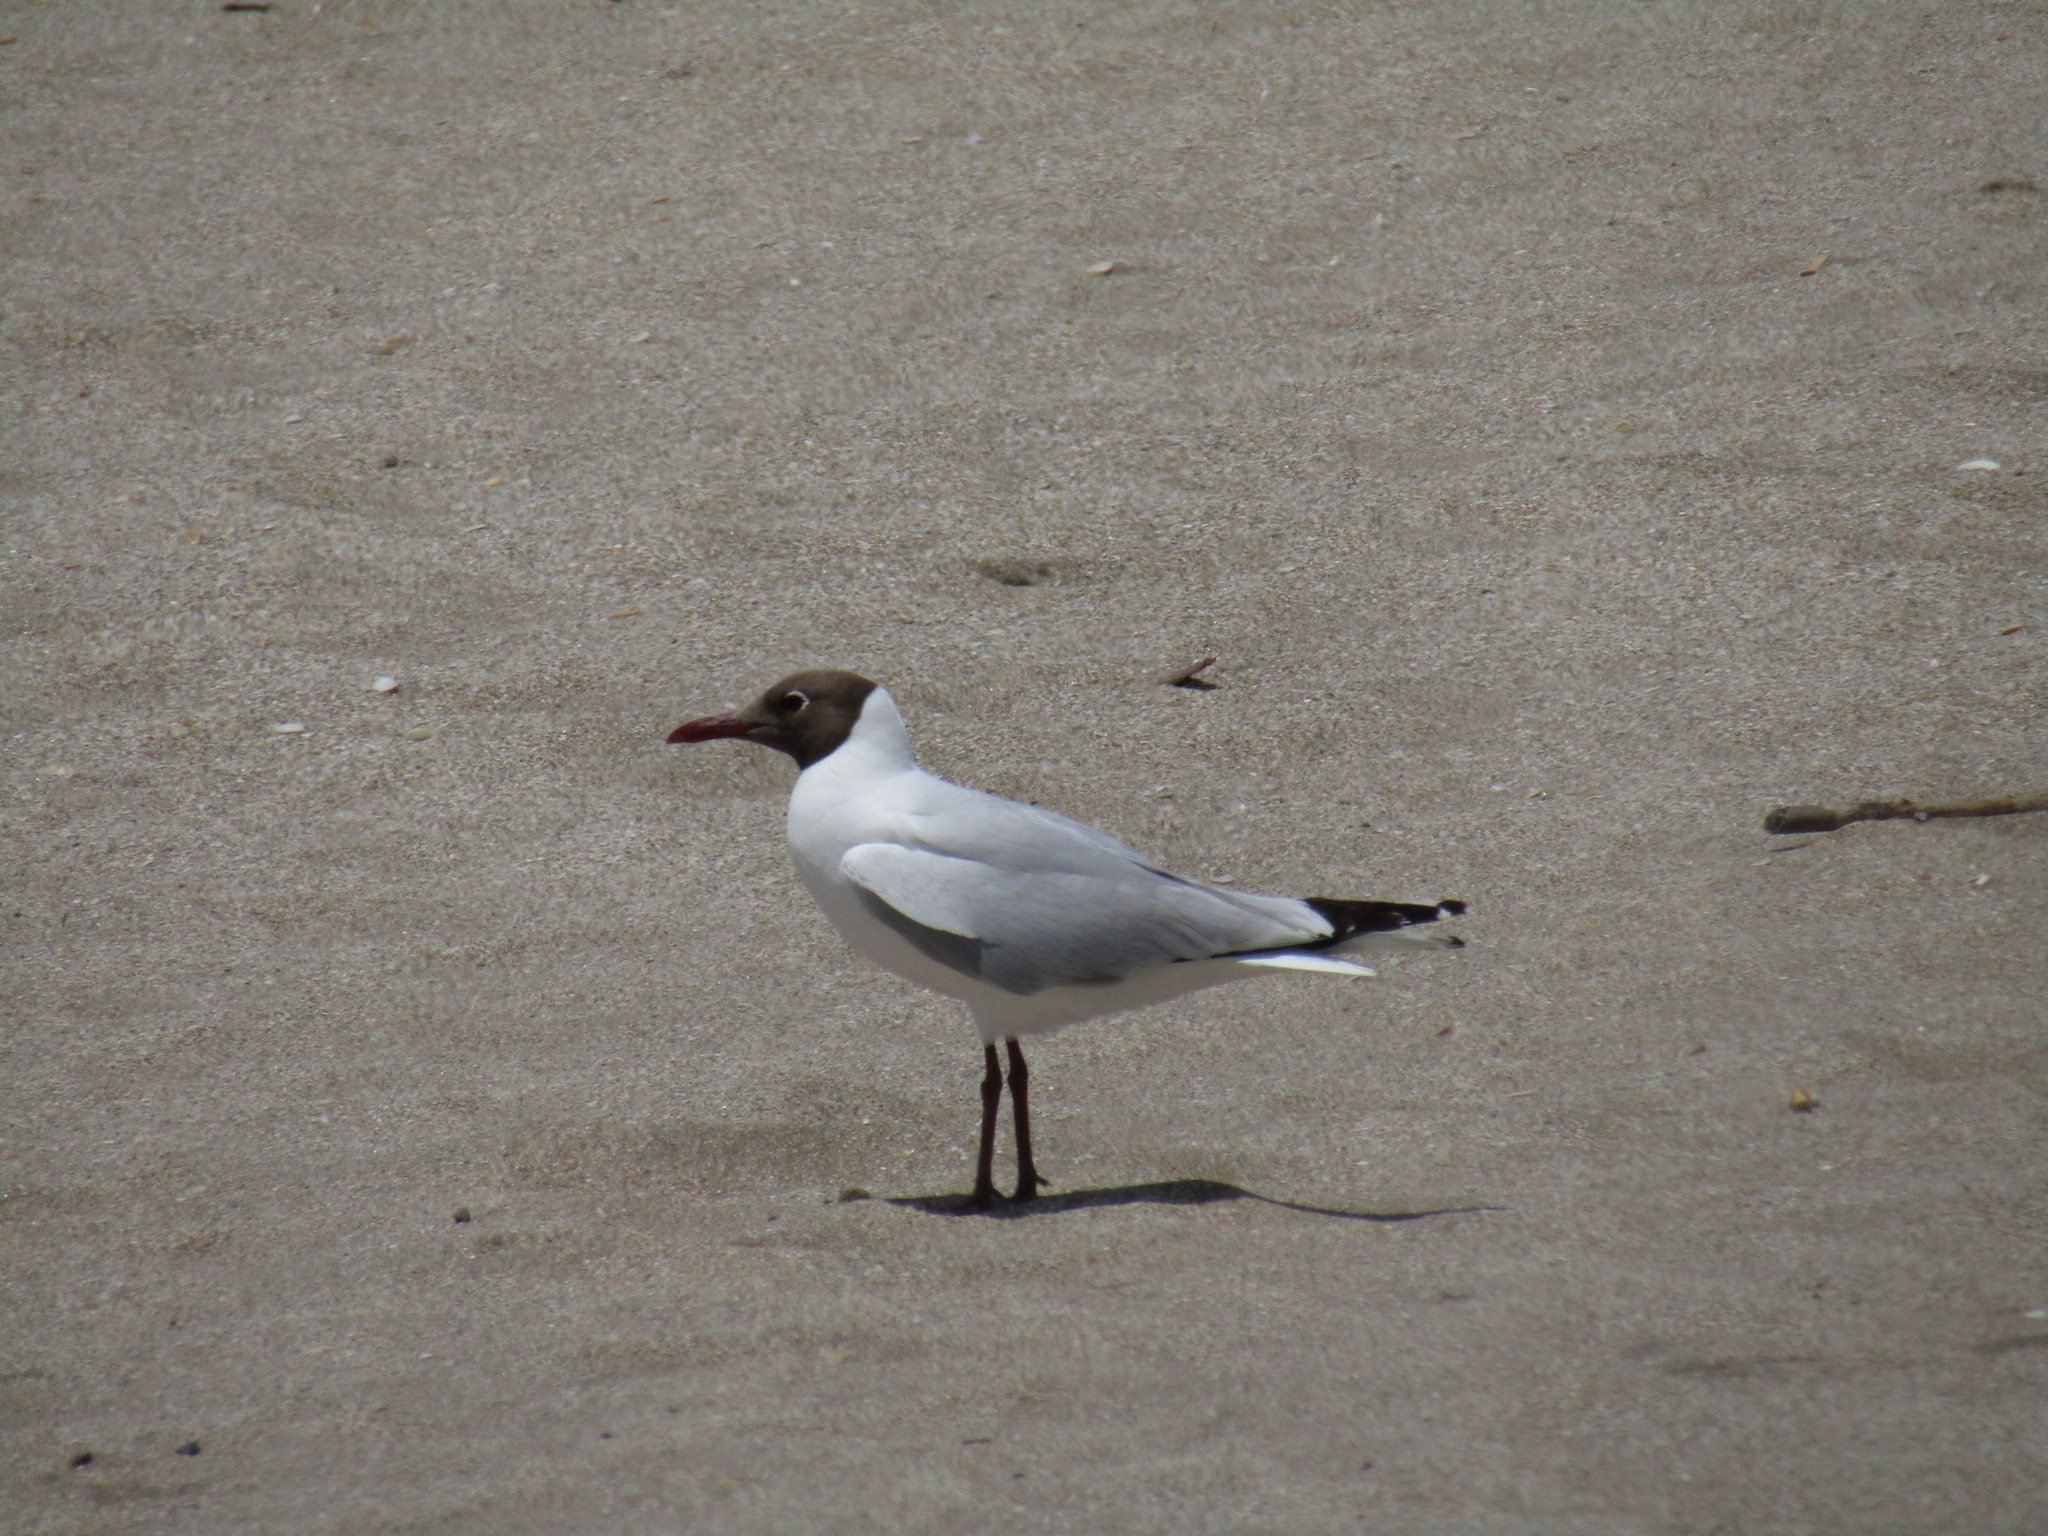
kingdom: Animalia
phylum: Chordata
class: Aves
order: Charadriiformes
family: Laridae
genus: Chroicocephalus
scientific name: Chroicocephalus maculipennis
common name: Brown-hooded gull
